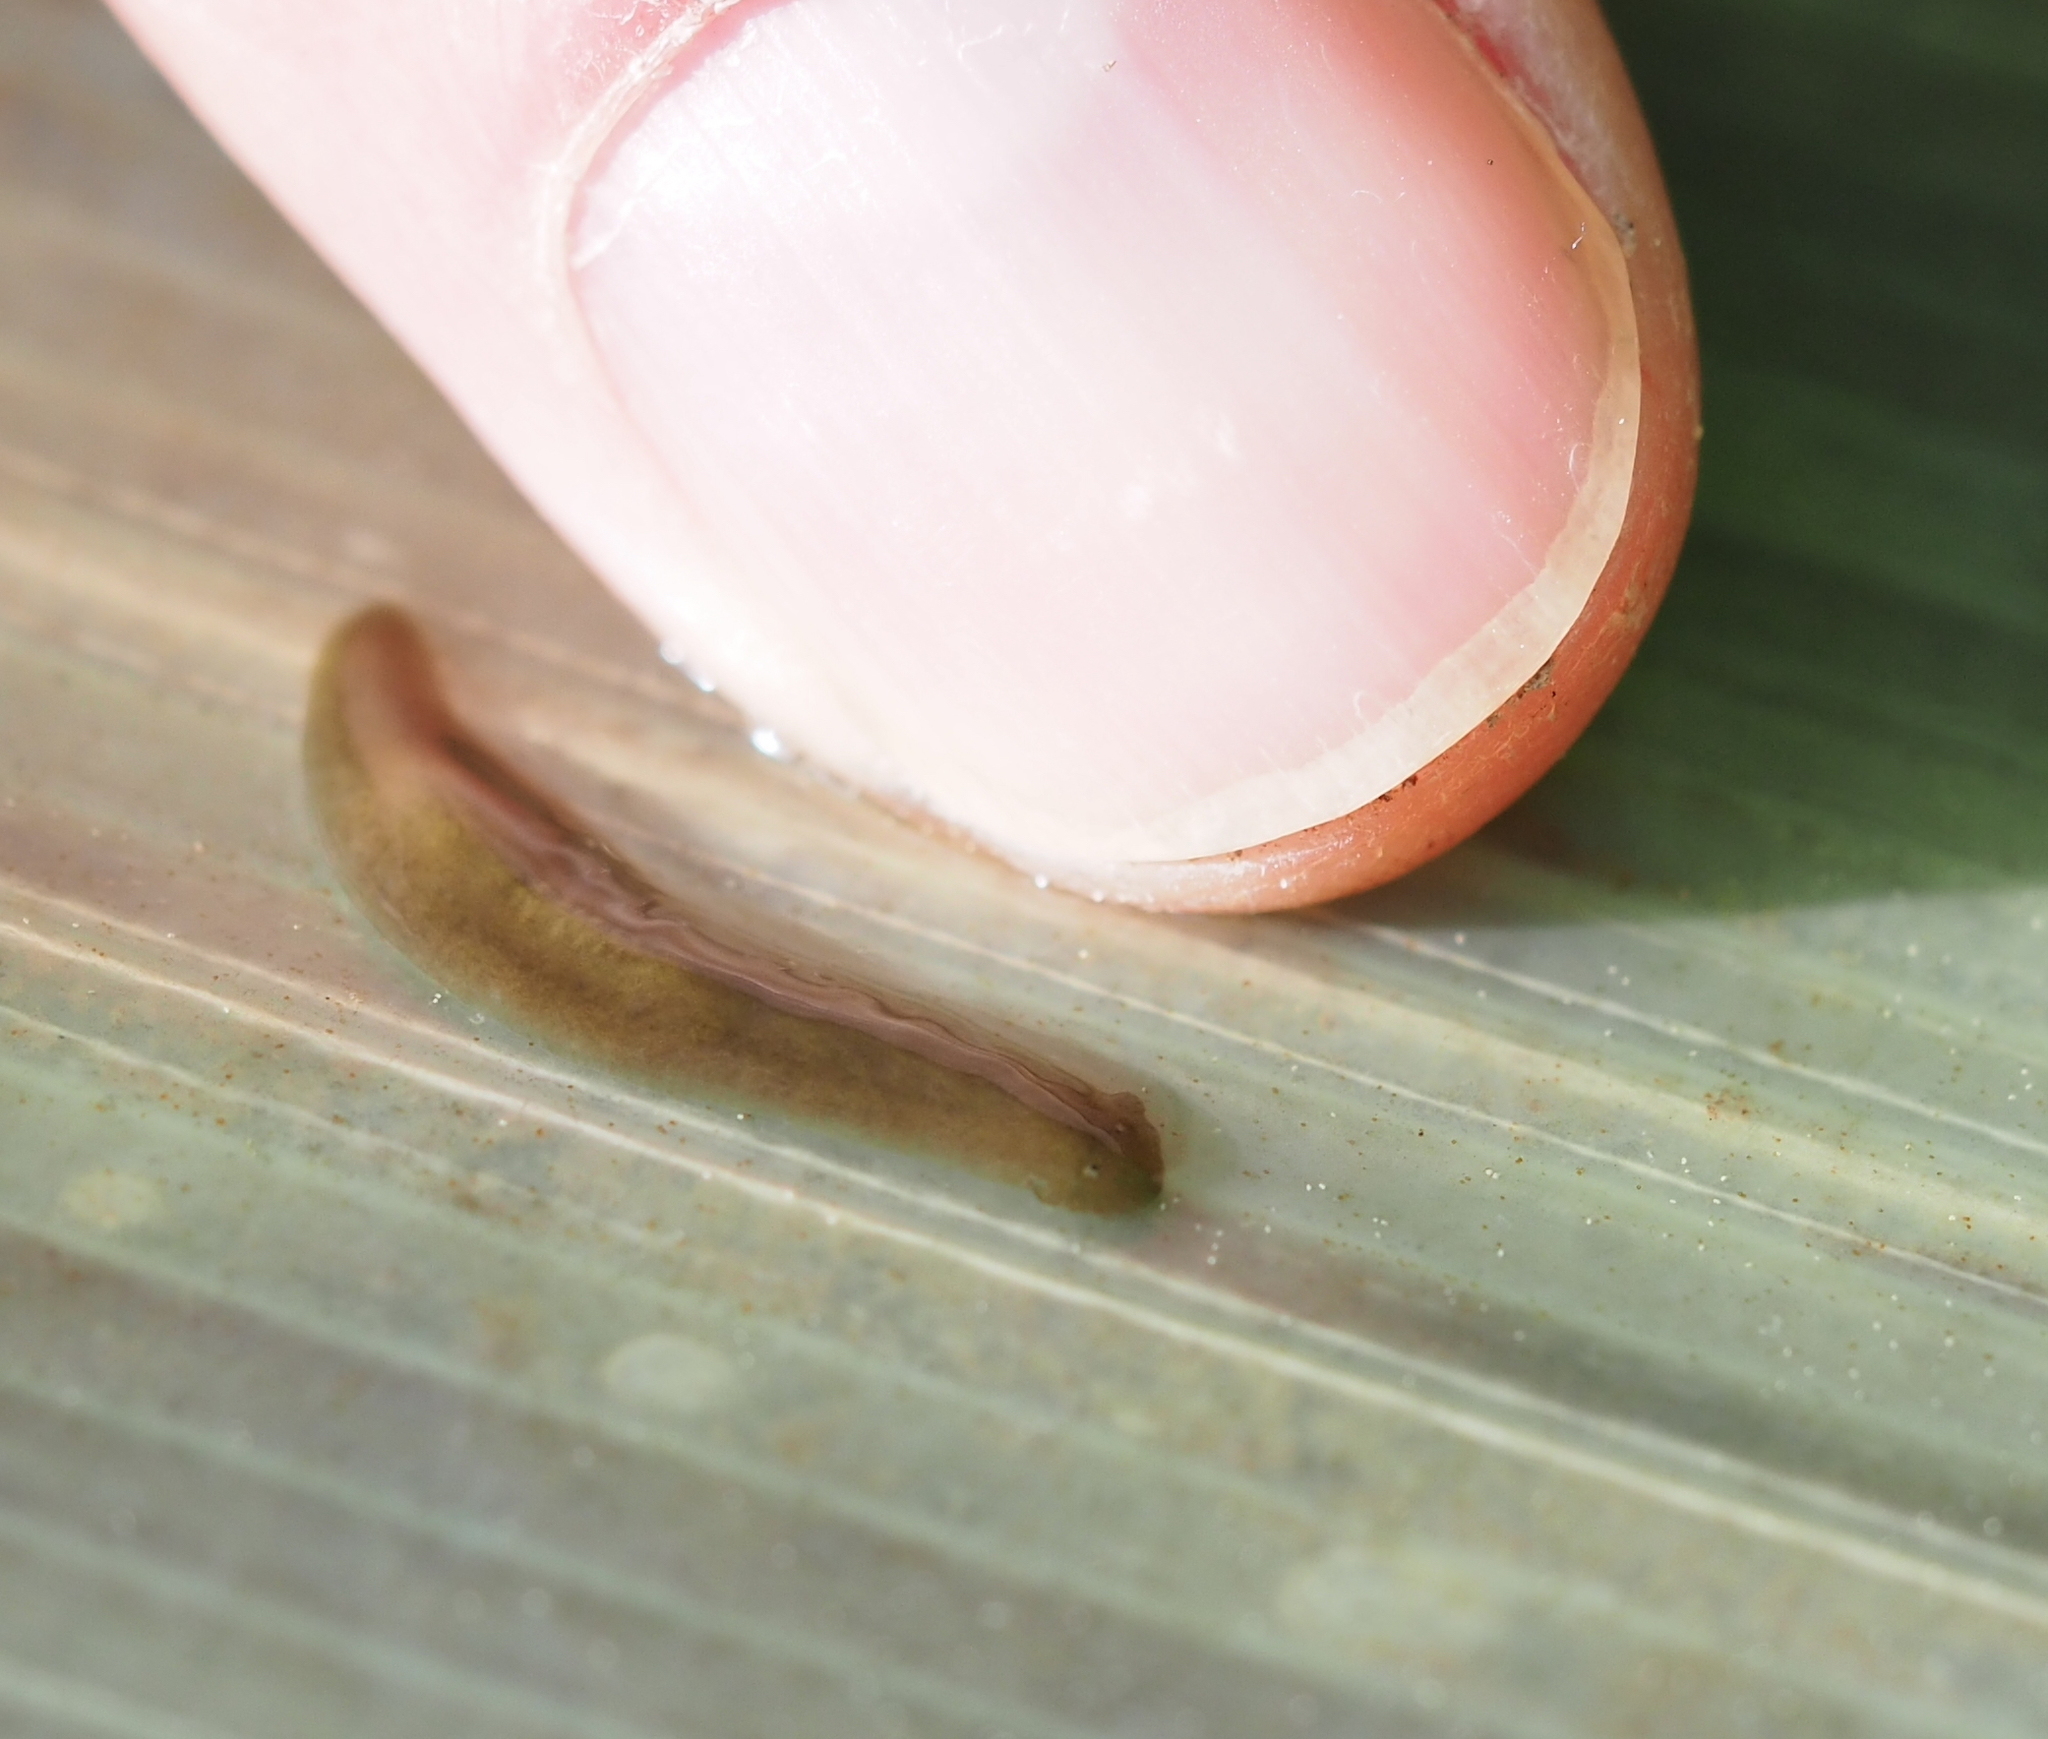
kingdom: Animalia
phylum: Platyhelminthes
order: Tricladida
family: Dugesiidae
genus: Dugesia
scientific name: Dugesia gonocephala
